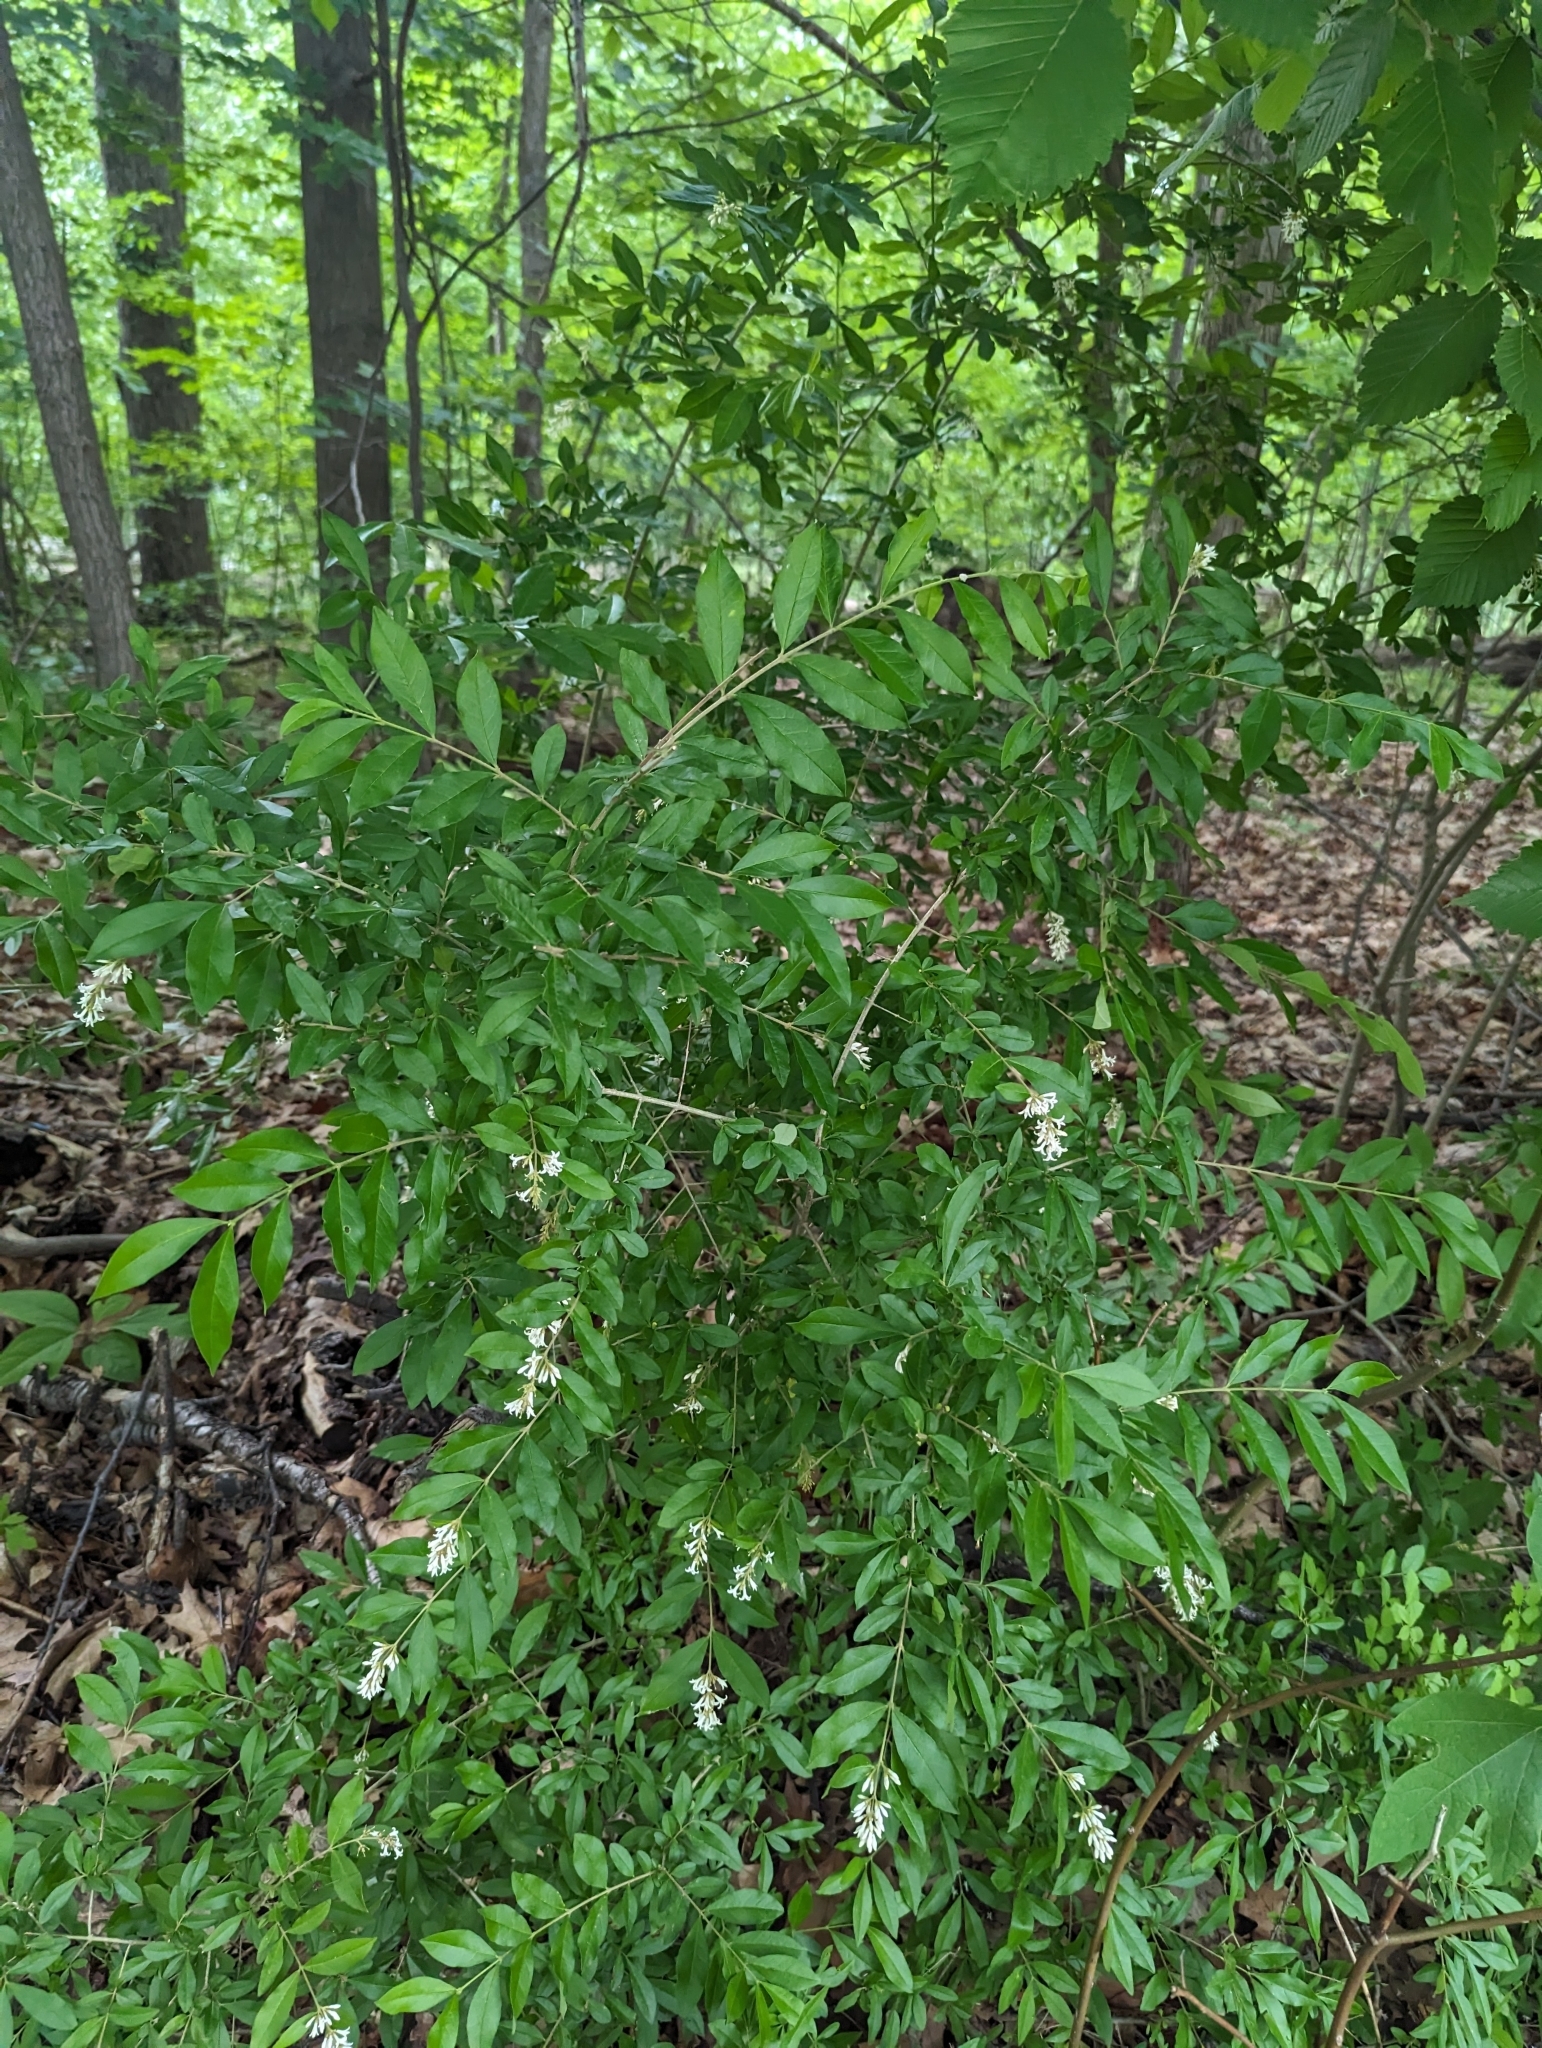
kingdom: Plantae
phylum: Tracheophyta
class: Magnoliopsida
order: Lamiales
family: Oleaceae
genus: Ligustrum
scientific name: Ligustrum obtusifolium
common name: Border privet
